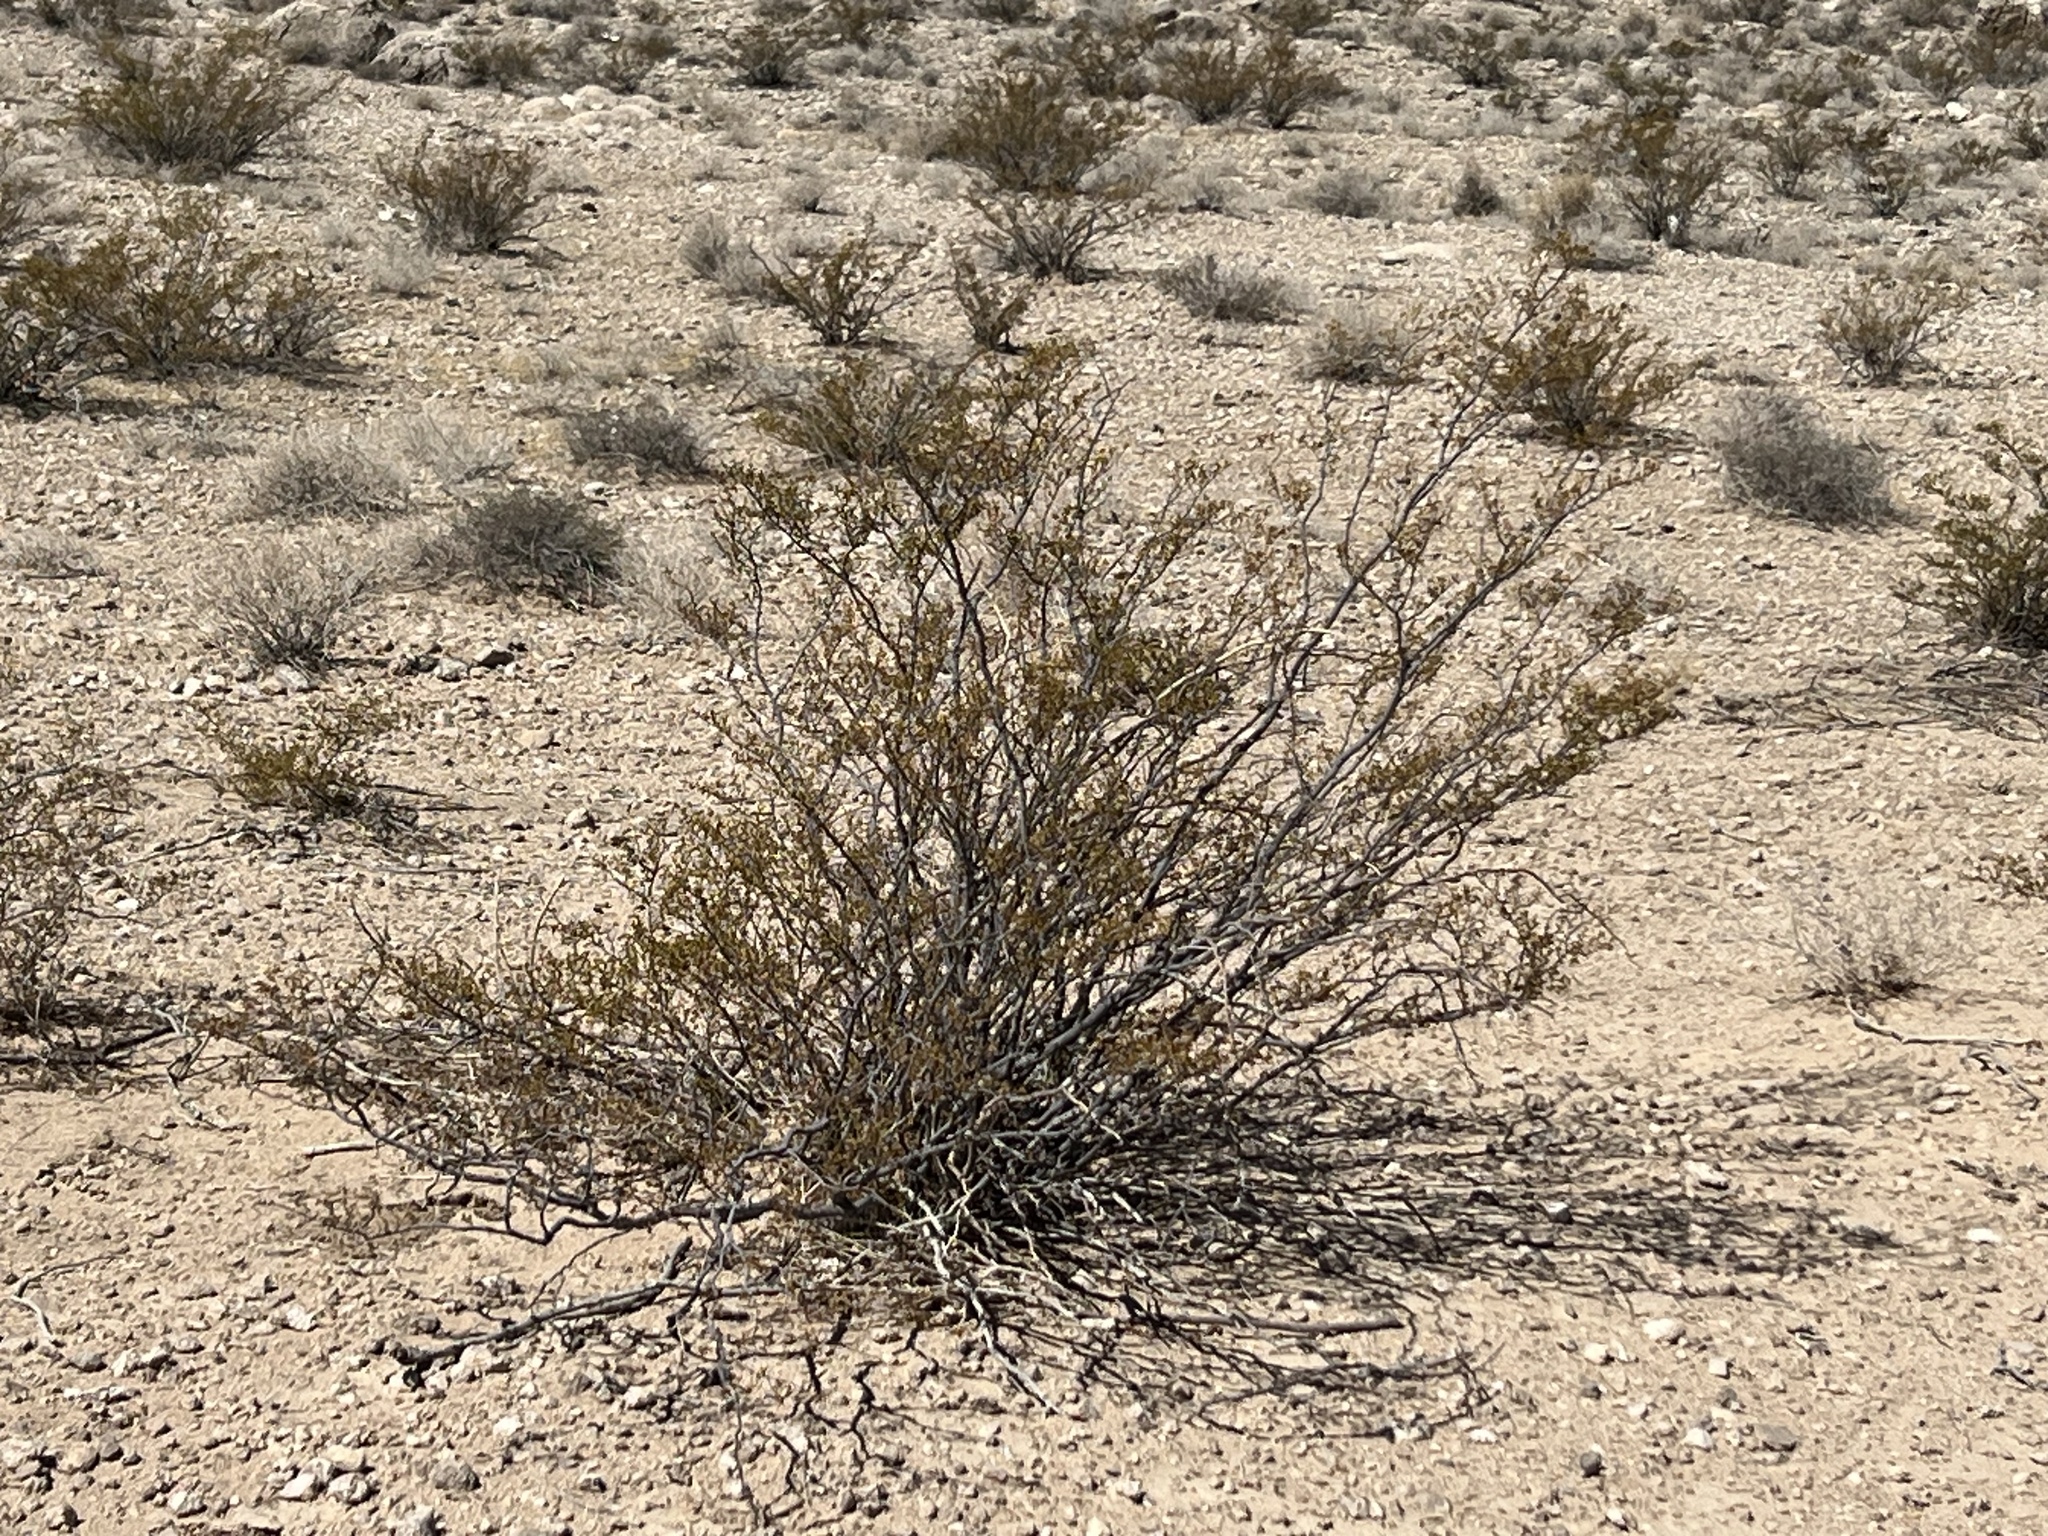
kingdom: Plantae
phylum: Tracheophyta
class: Magnoliopsida
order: Zygophyllales
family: Zygophyllaceae
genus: Larrea
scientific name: Larrea tridentata
